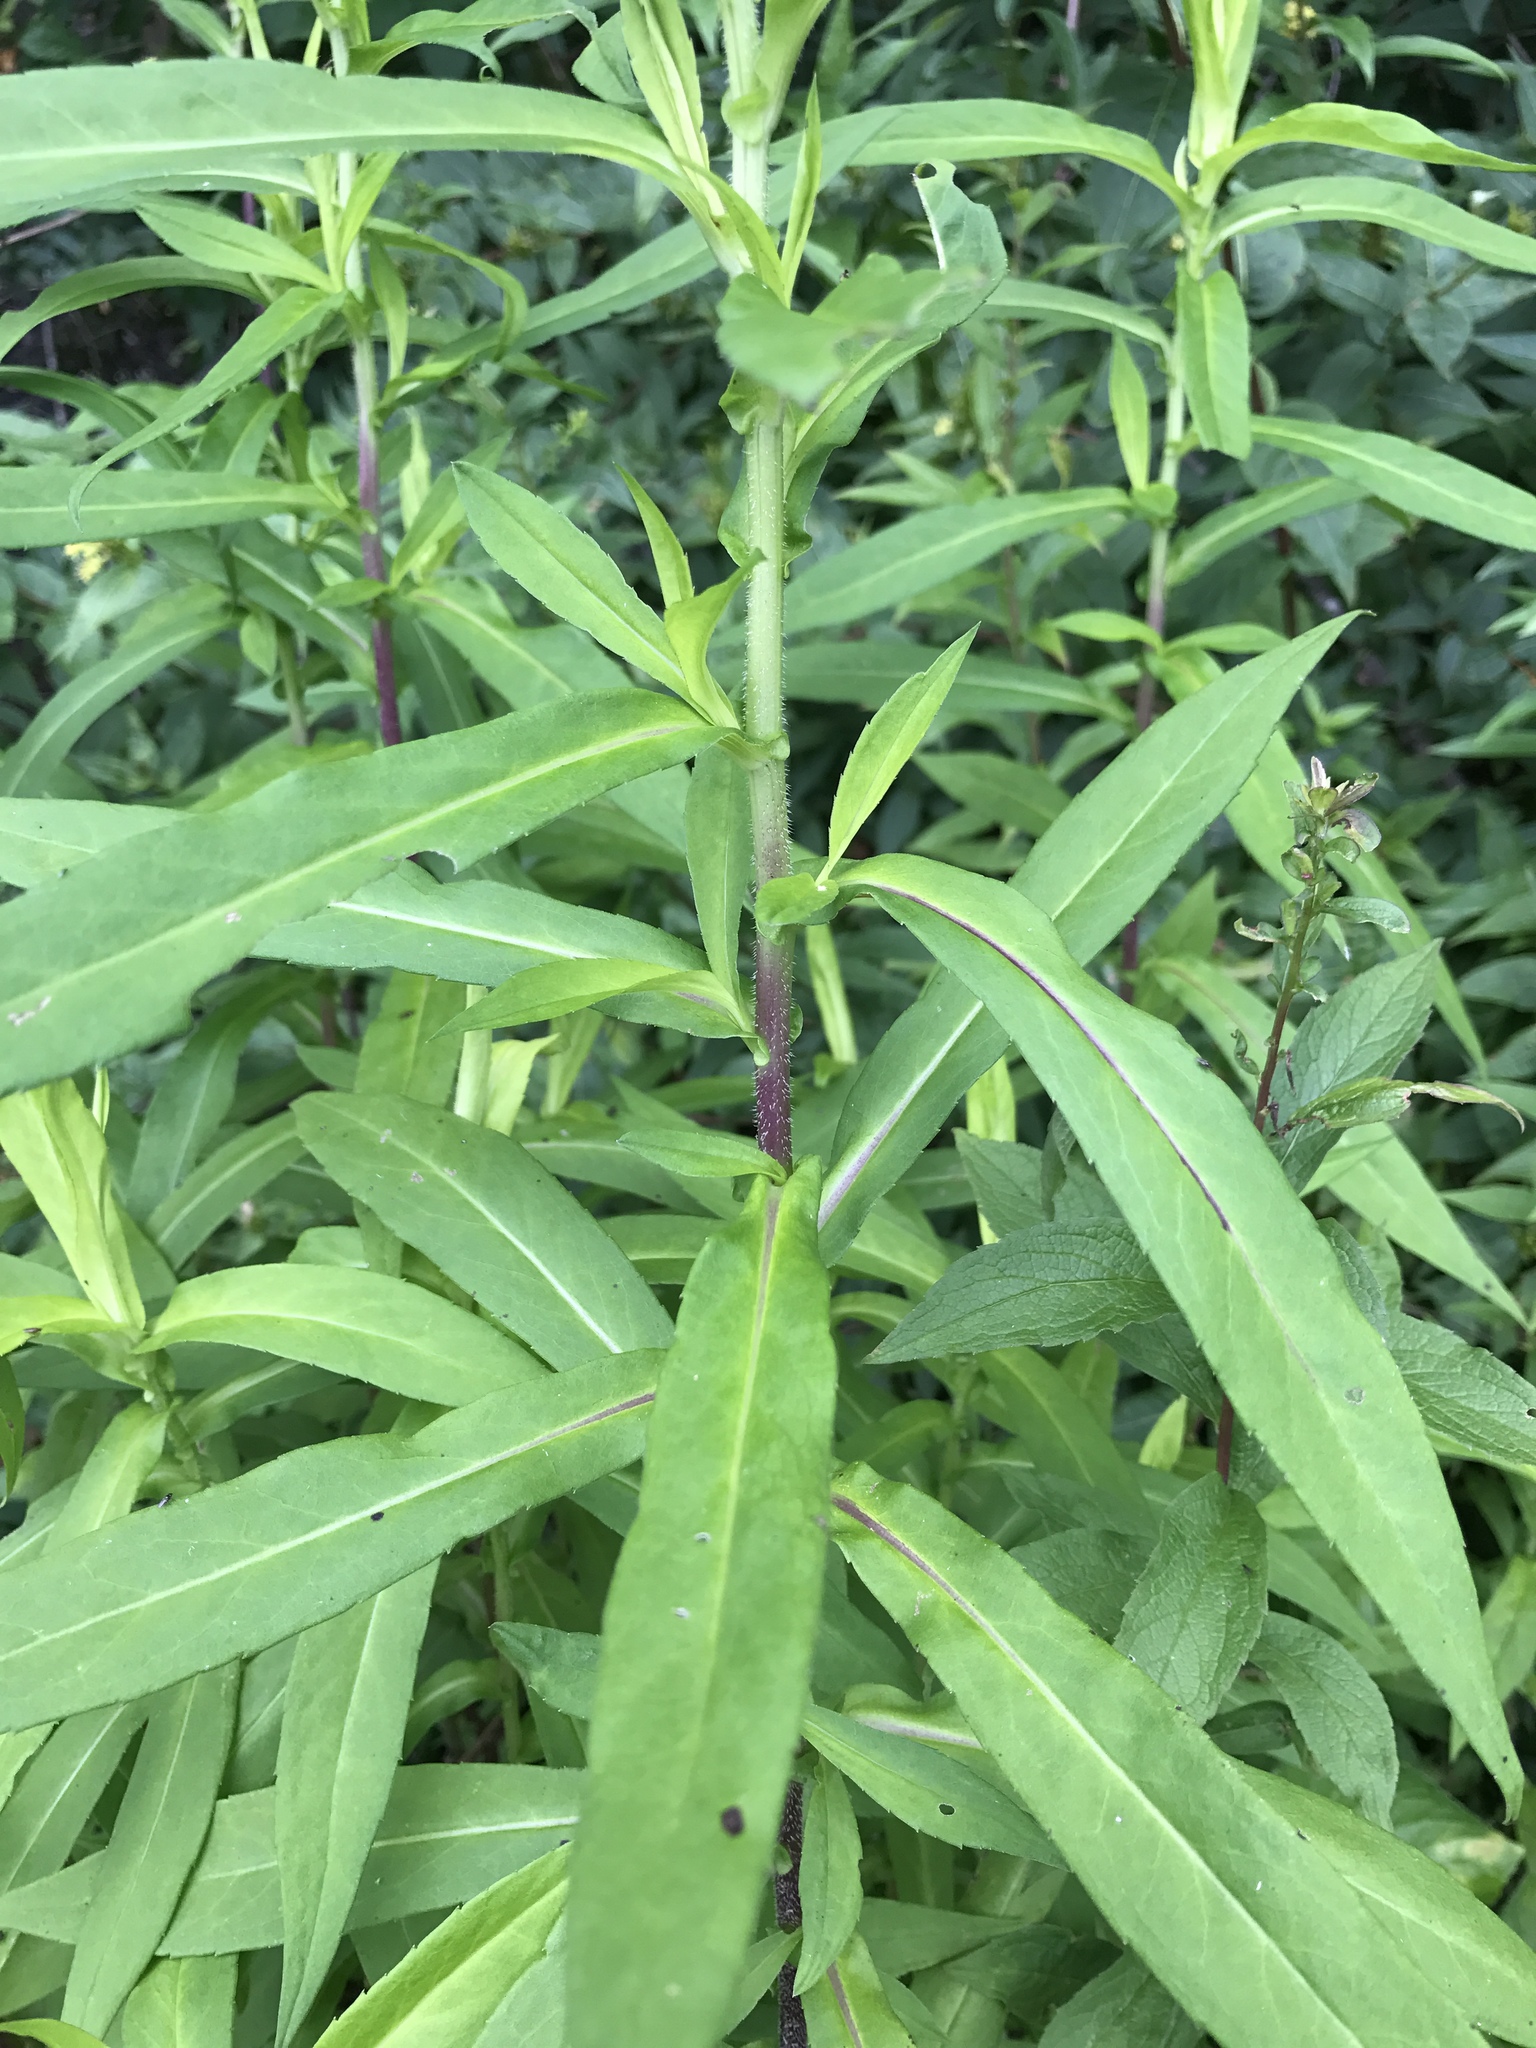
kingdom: Plantae
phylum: Tracheophyta
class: Magnoliopsida
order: Asterales
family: Asteraceae
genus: Symphyotrichum
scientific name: Symphyotrichum puniceum
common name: Bog aster
